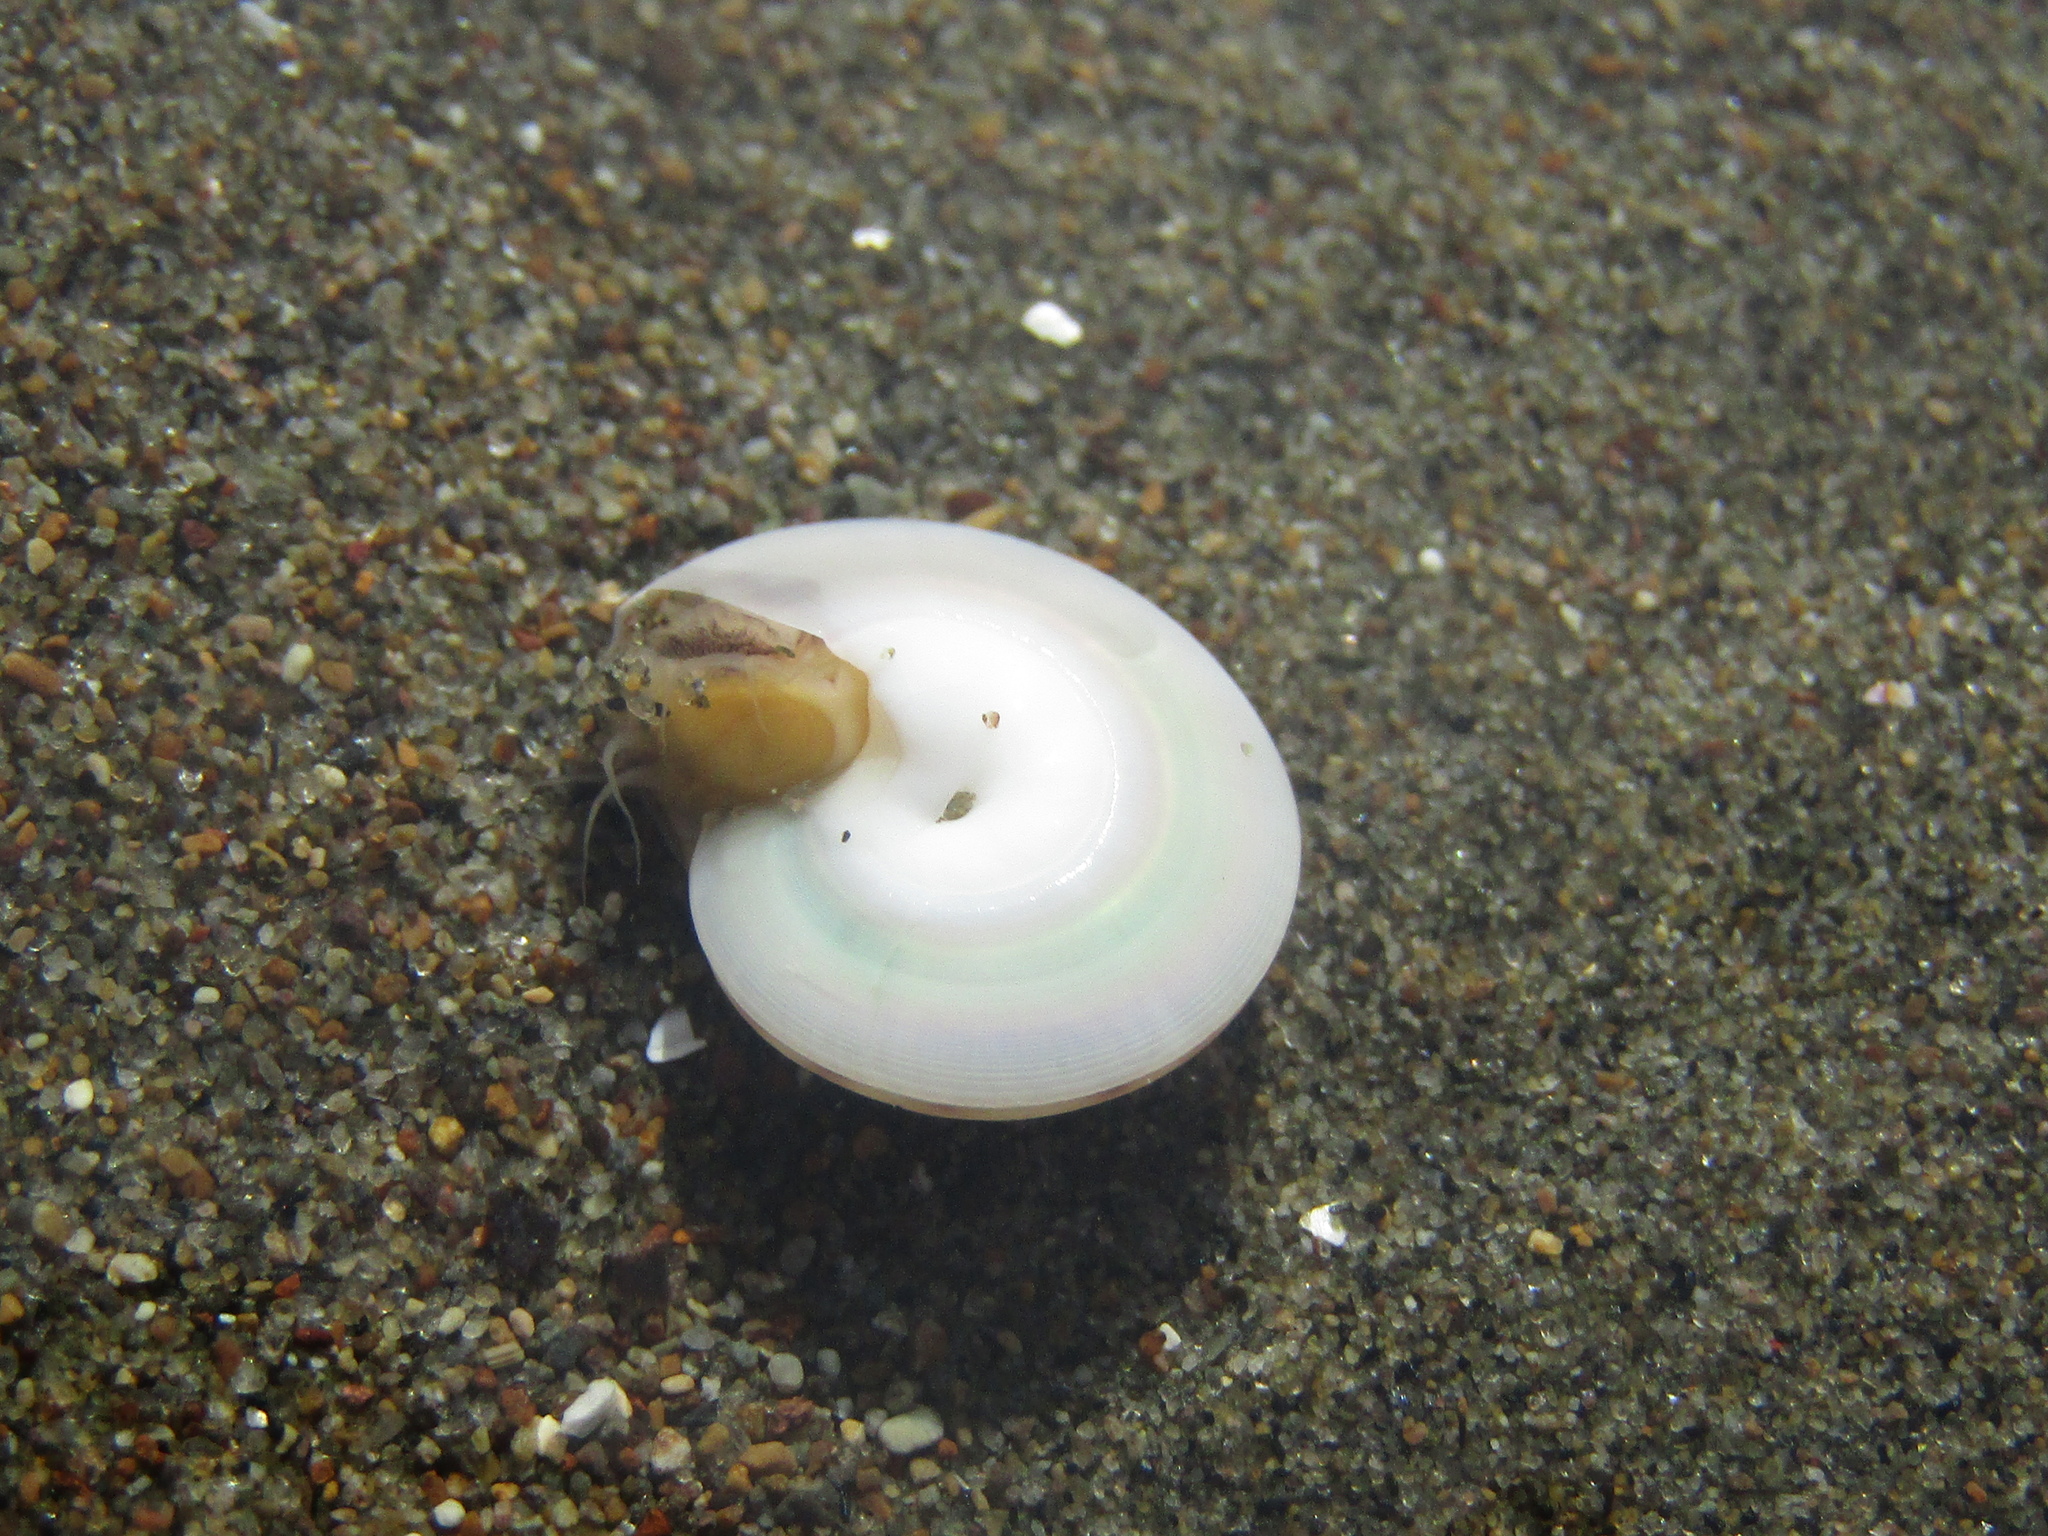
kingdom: Animalia
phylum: Mollusca
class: Gastropoda
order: Trochida
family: Trochidae
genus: Zethalia
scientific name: Zethalia zelandica
